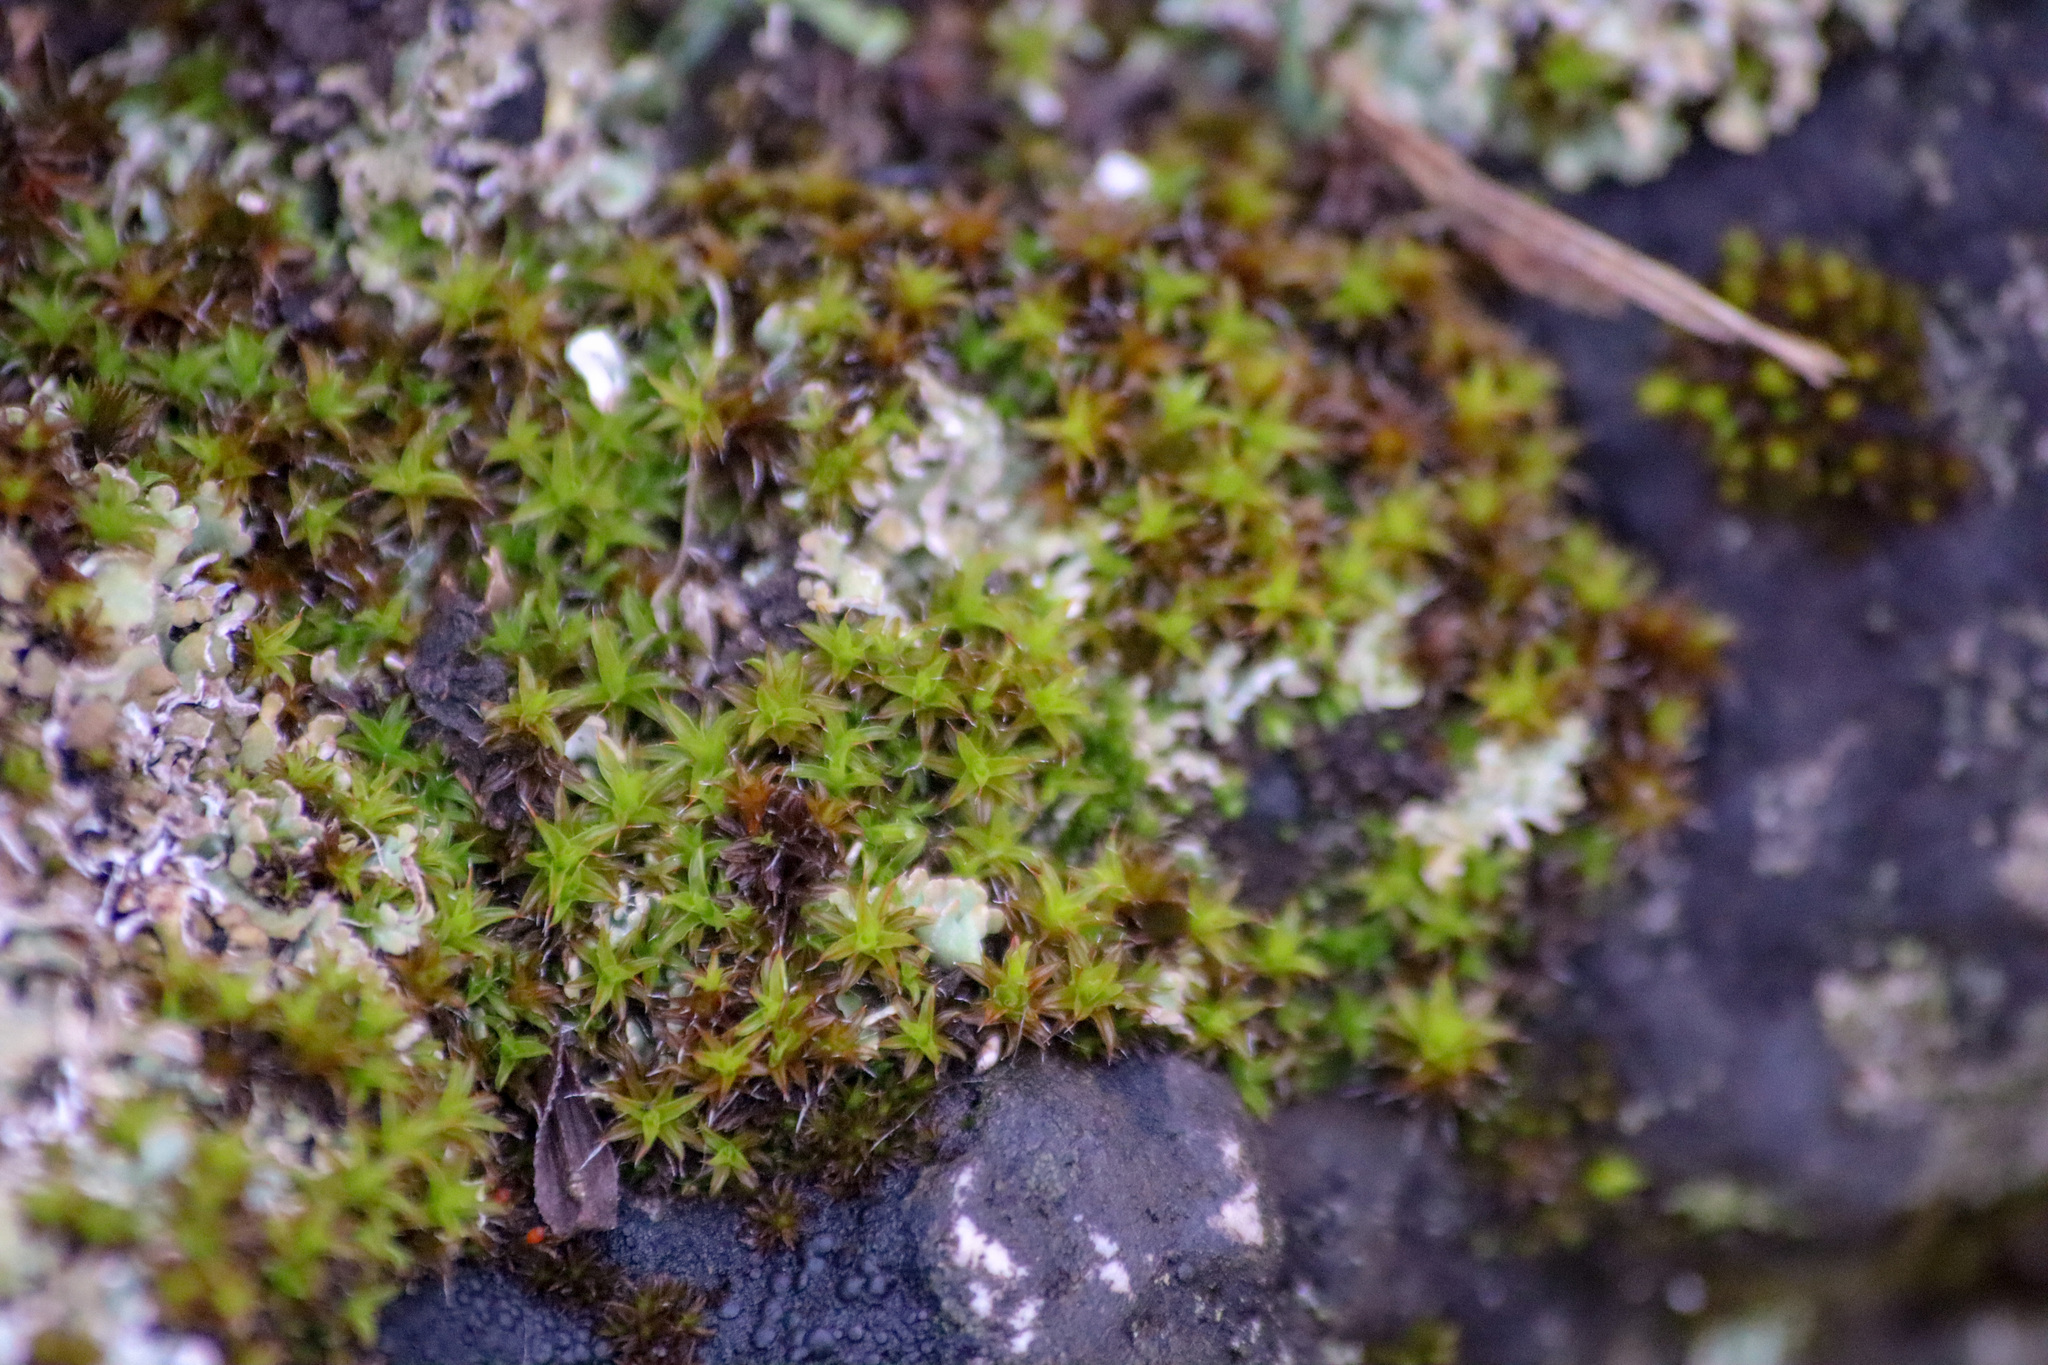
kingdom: Plantae
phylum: Bryophyta
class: Bryopsida
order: Pottiales
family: Pottiaceae
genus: Syntrichia
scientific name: Syntrichia ruralis
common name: Sidewalk screw moss
